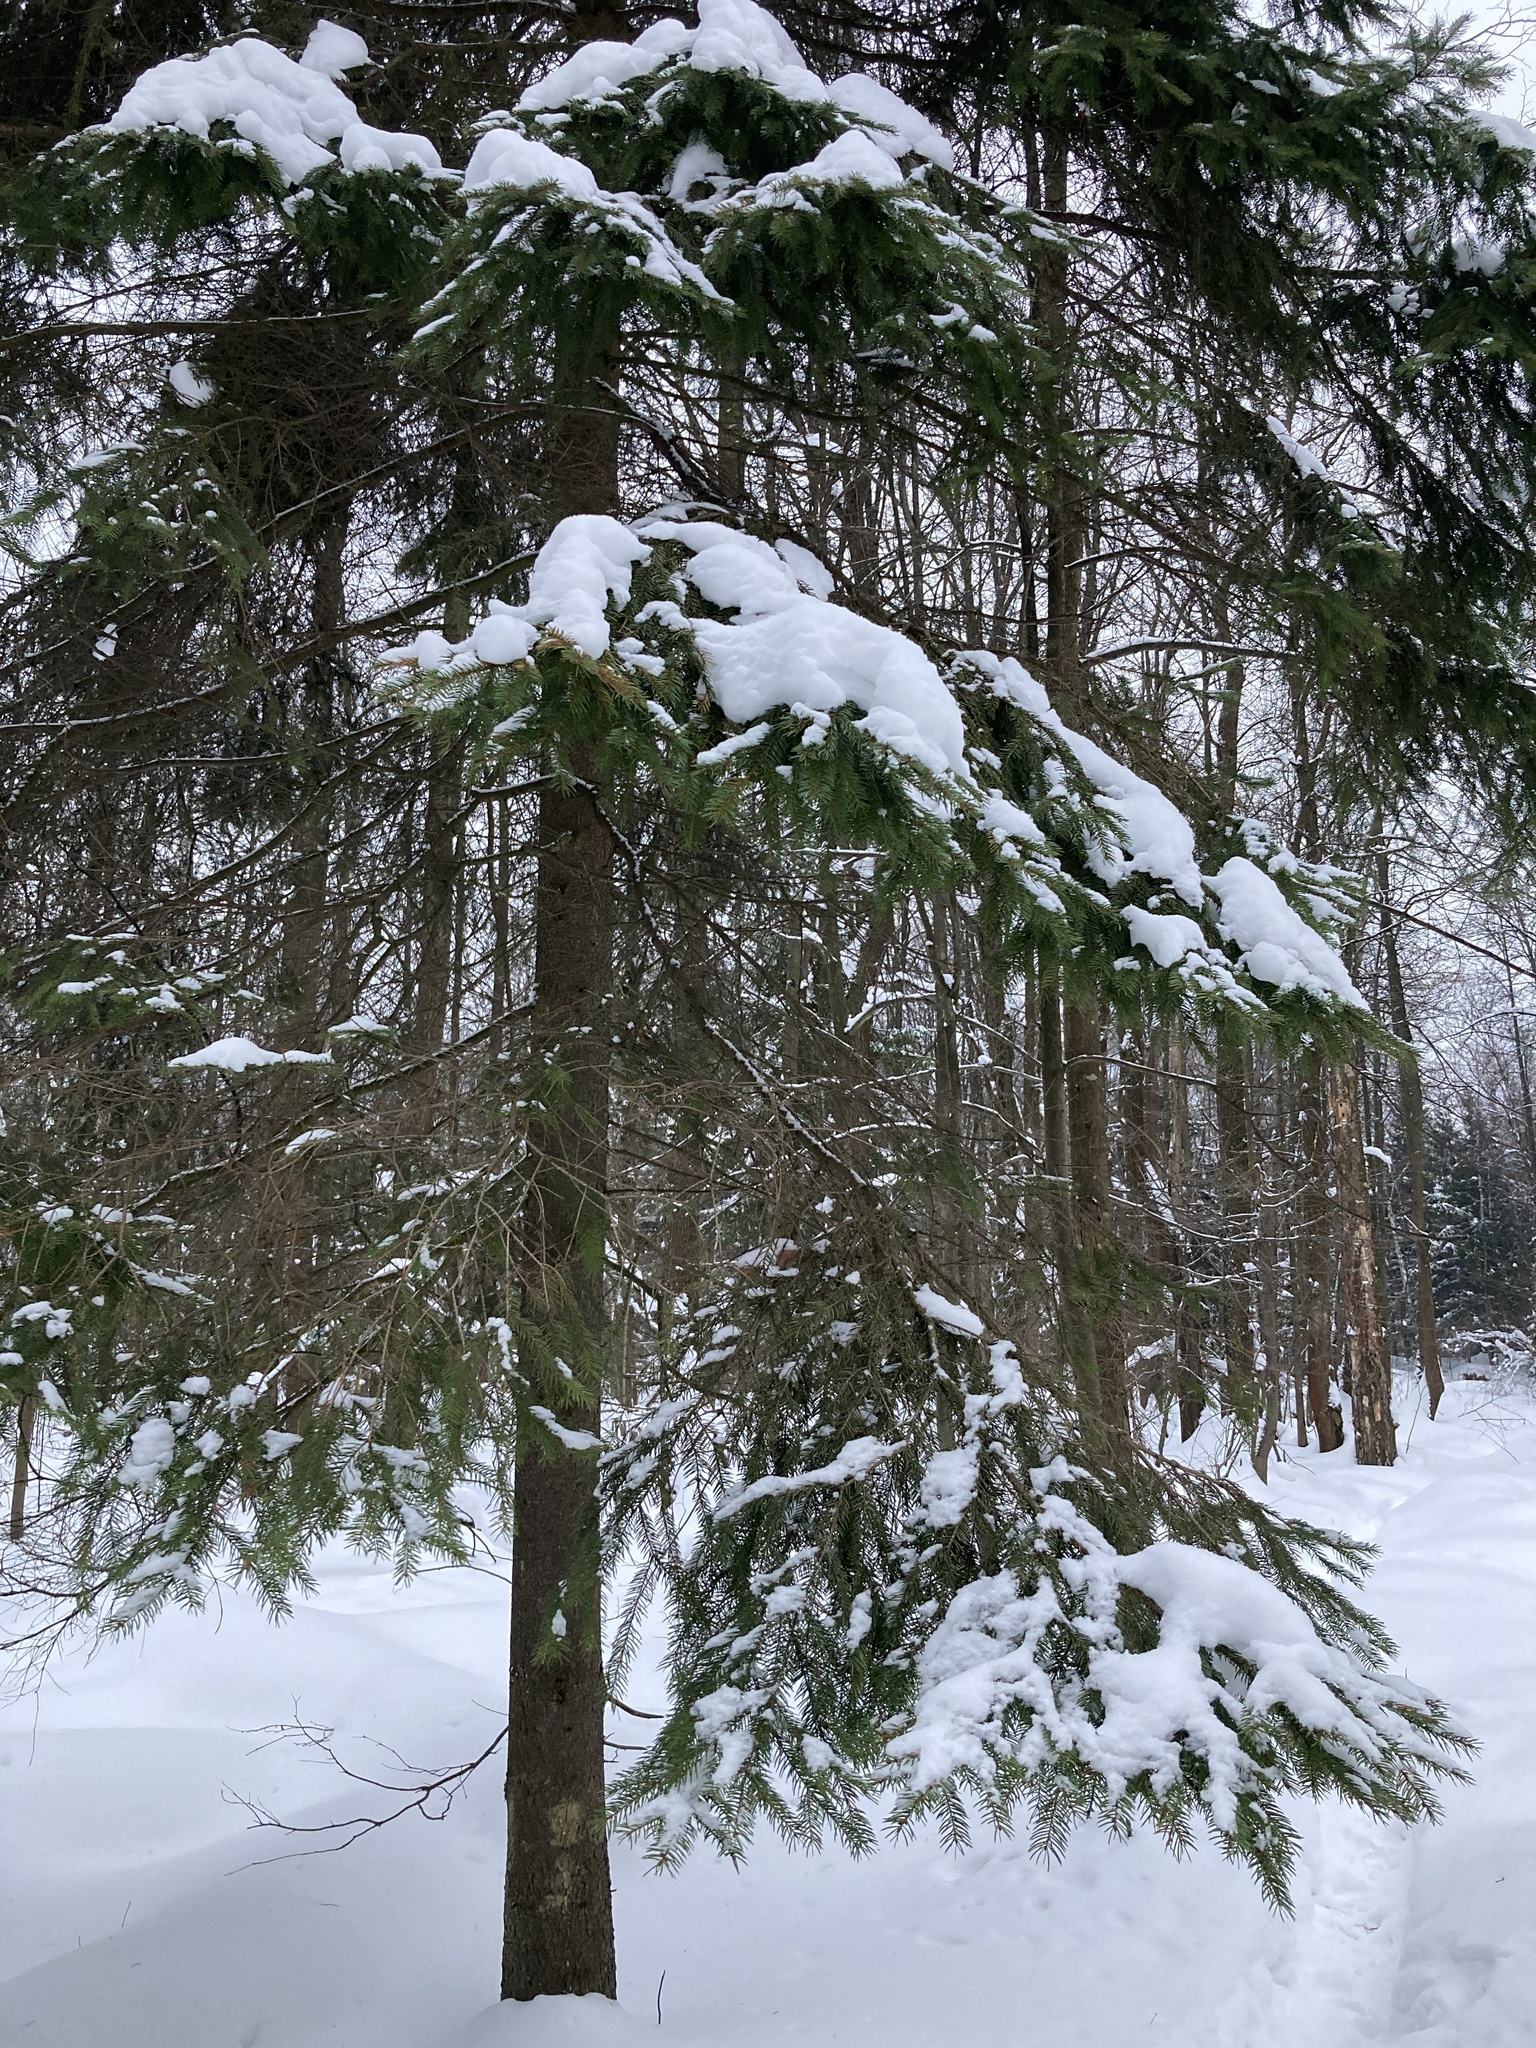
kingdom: Plantae
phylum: Tracheophyta
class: Pinopsida
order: Pinales
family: Pinaceae
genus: Picea
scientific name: Picea abies
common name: Norway spruce
